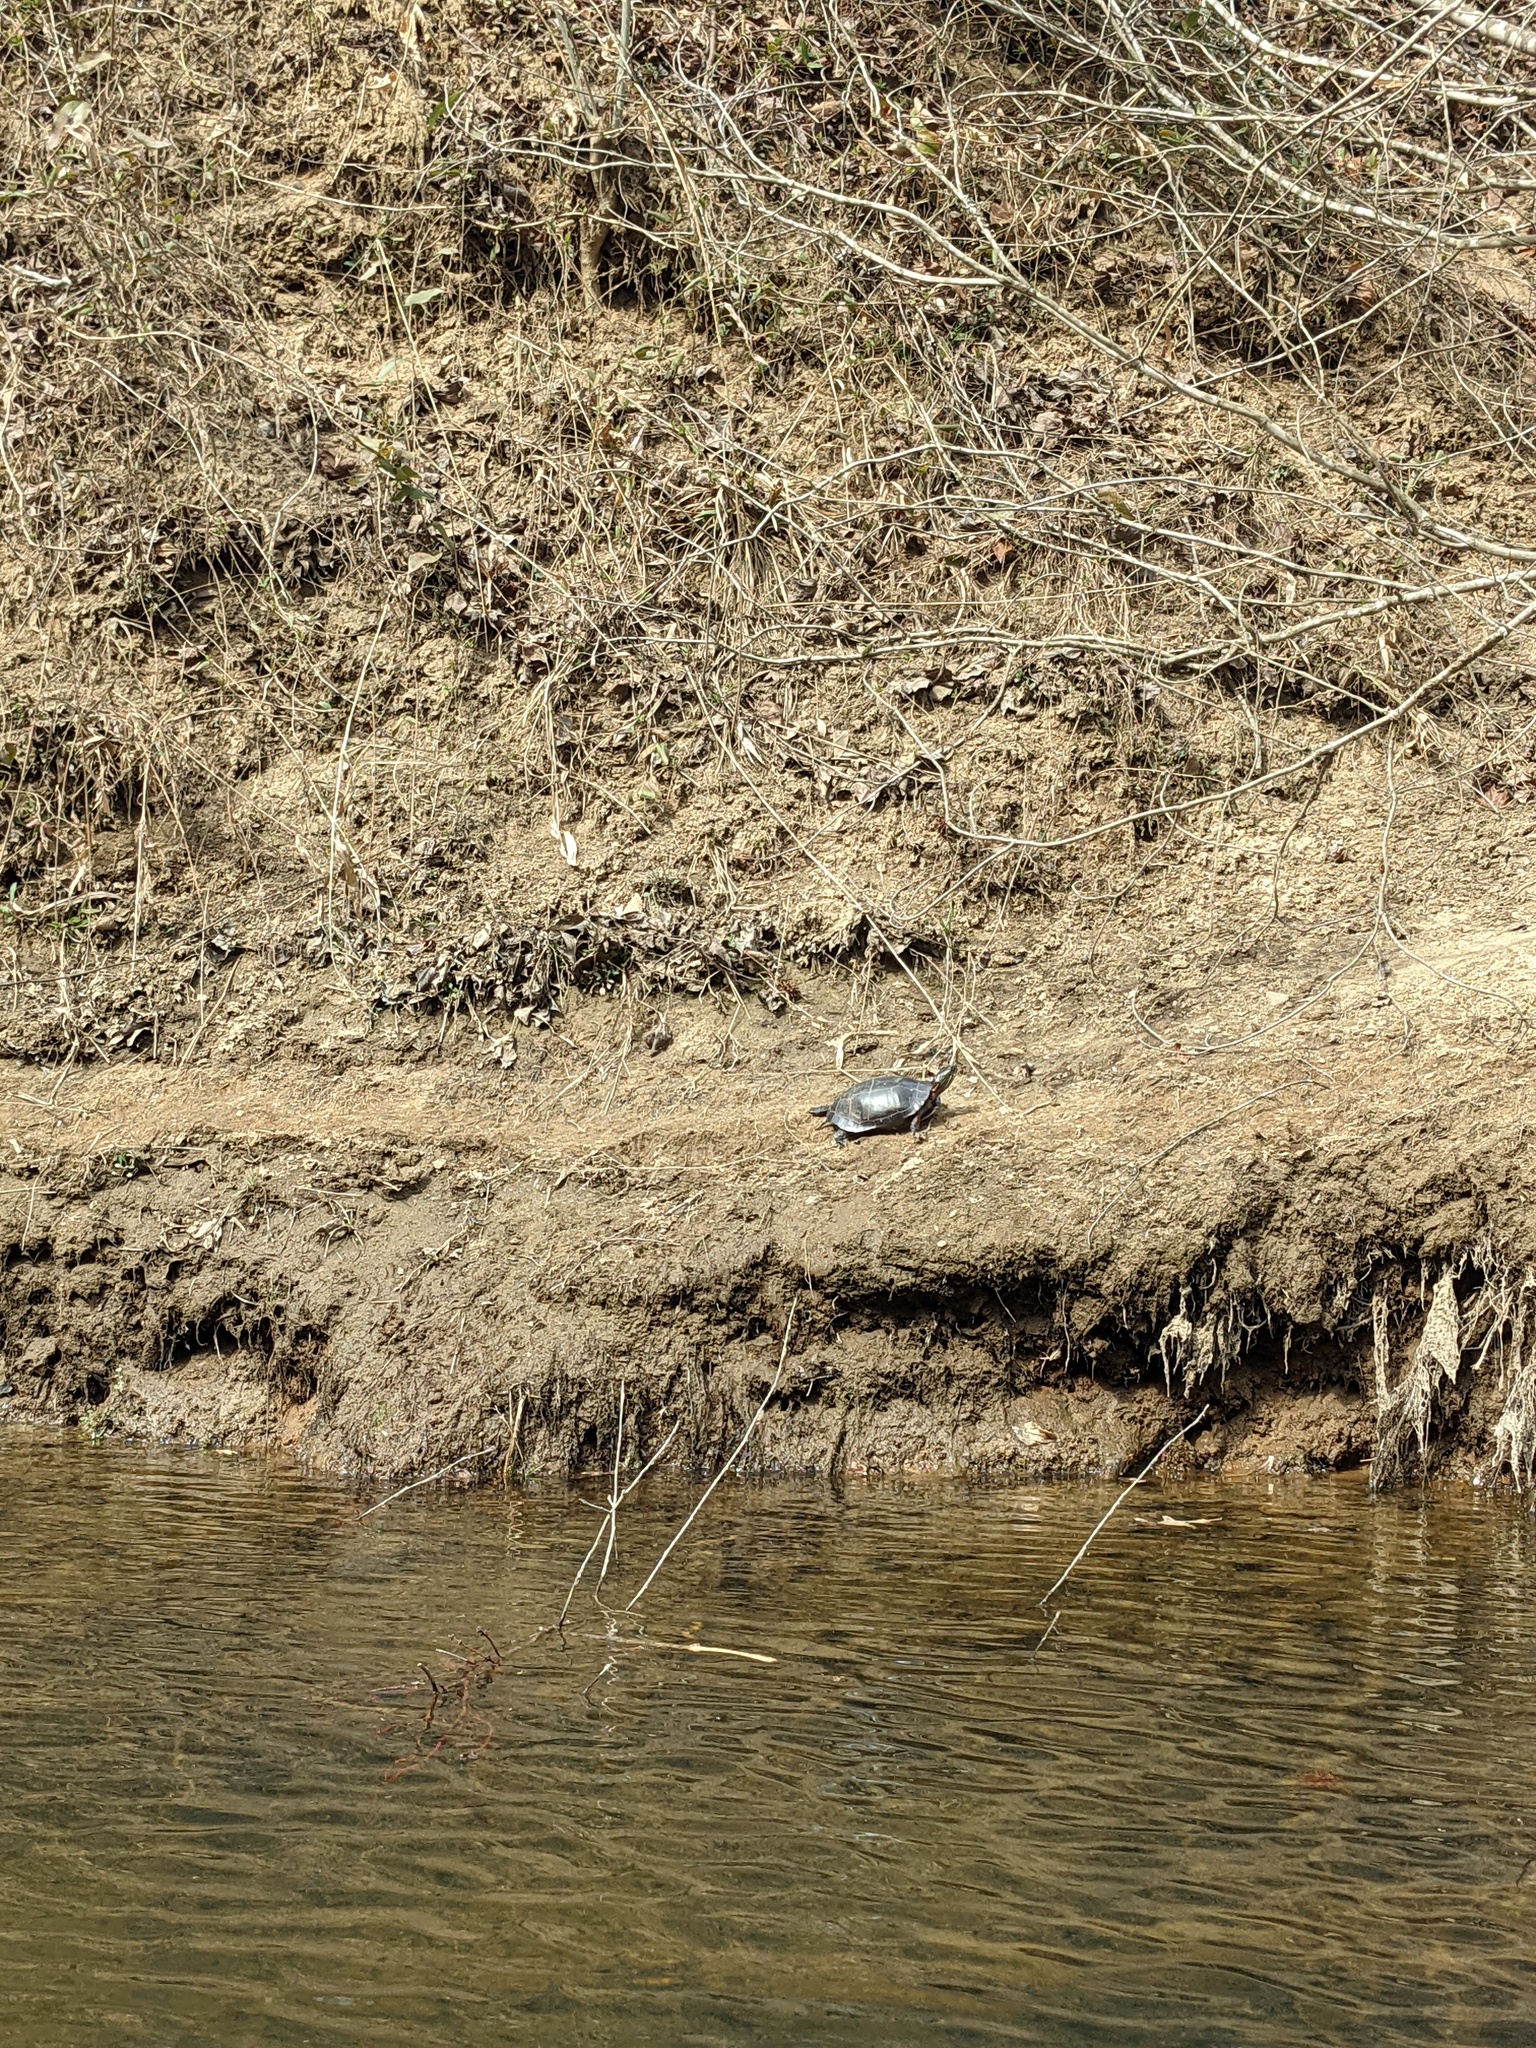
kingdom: Animalia
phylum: Chordata
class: Testudines
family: Emydidae
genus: Chrysemys
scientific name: Chrysemys picta
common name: Painted turtle
